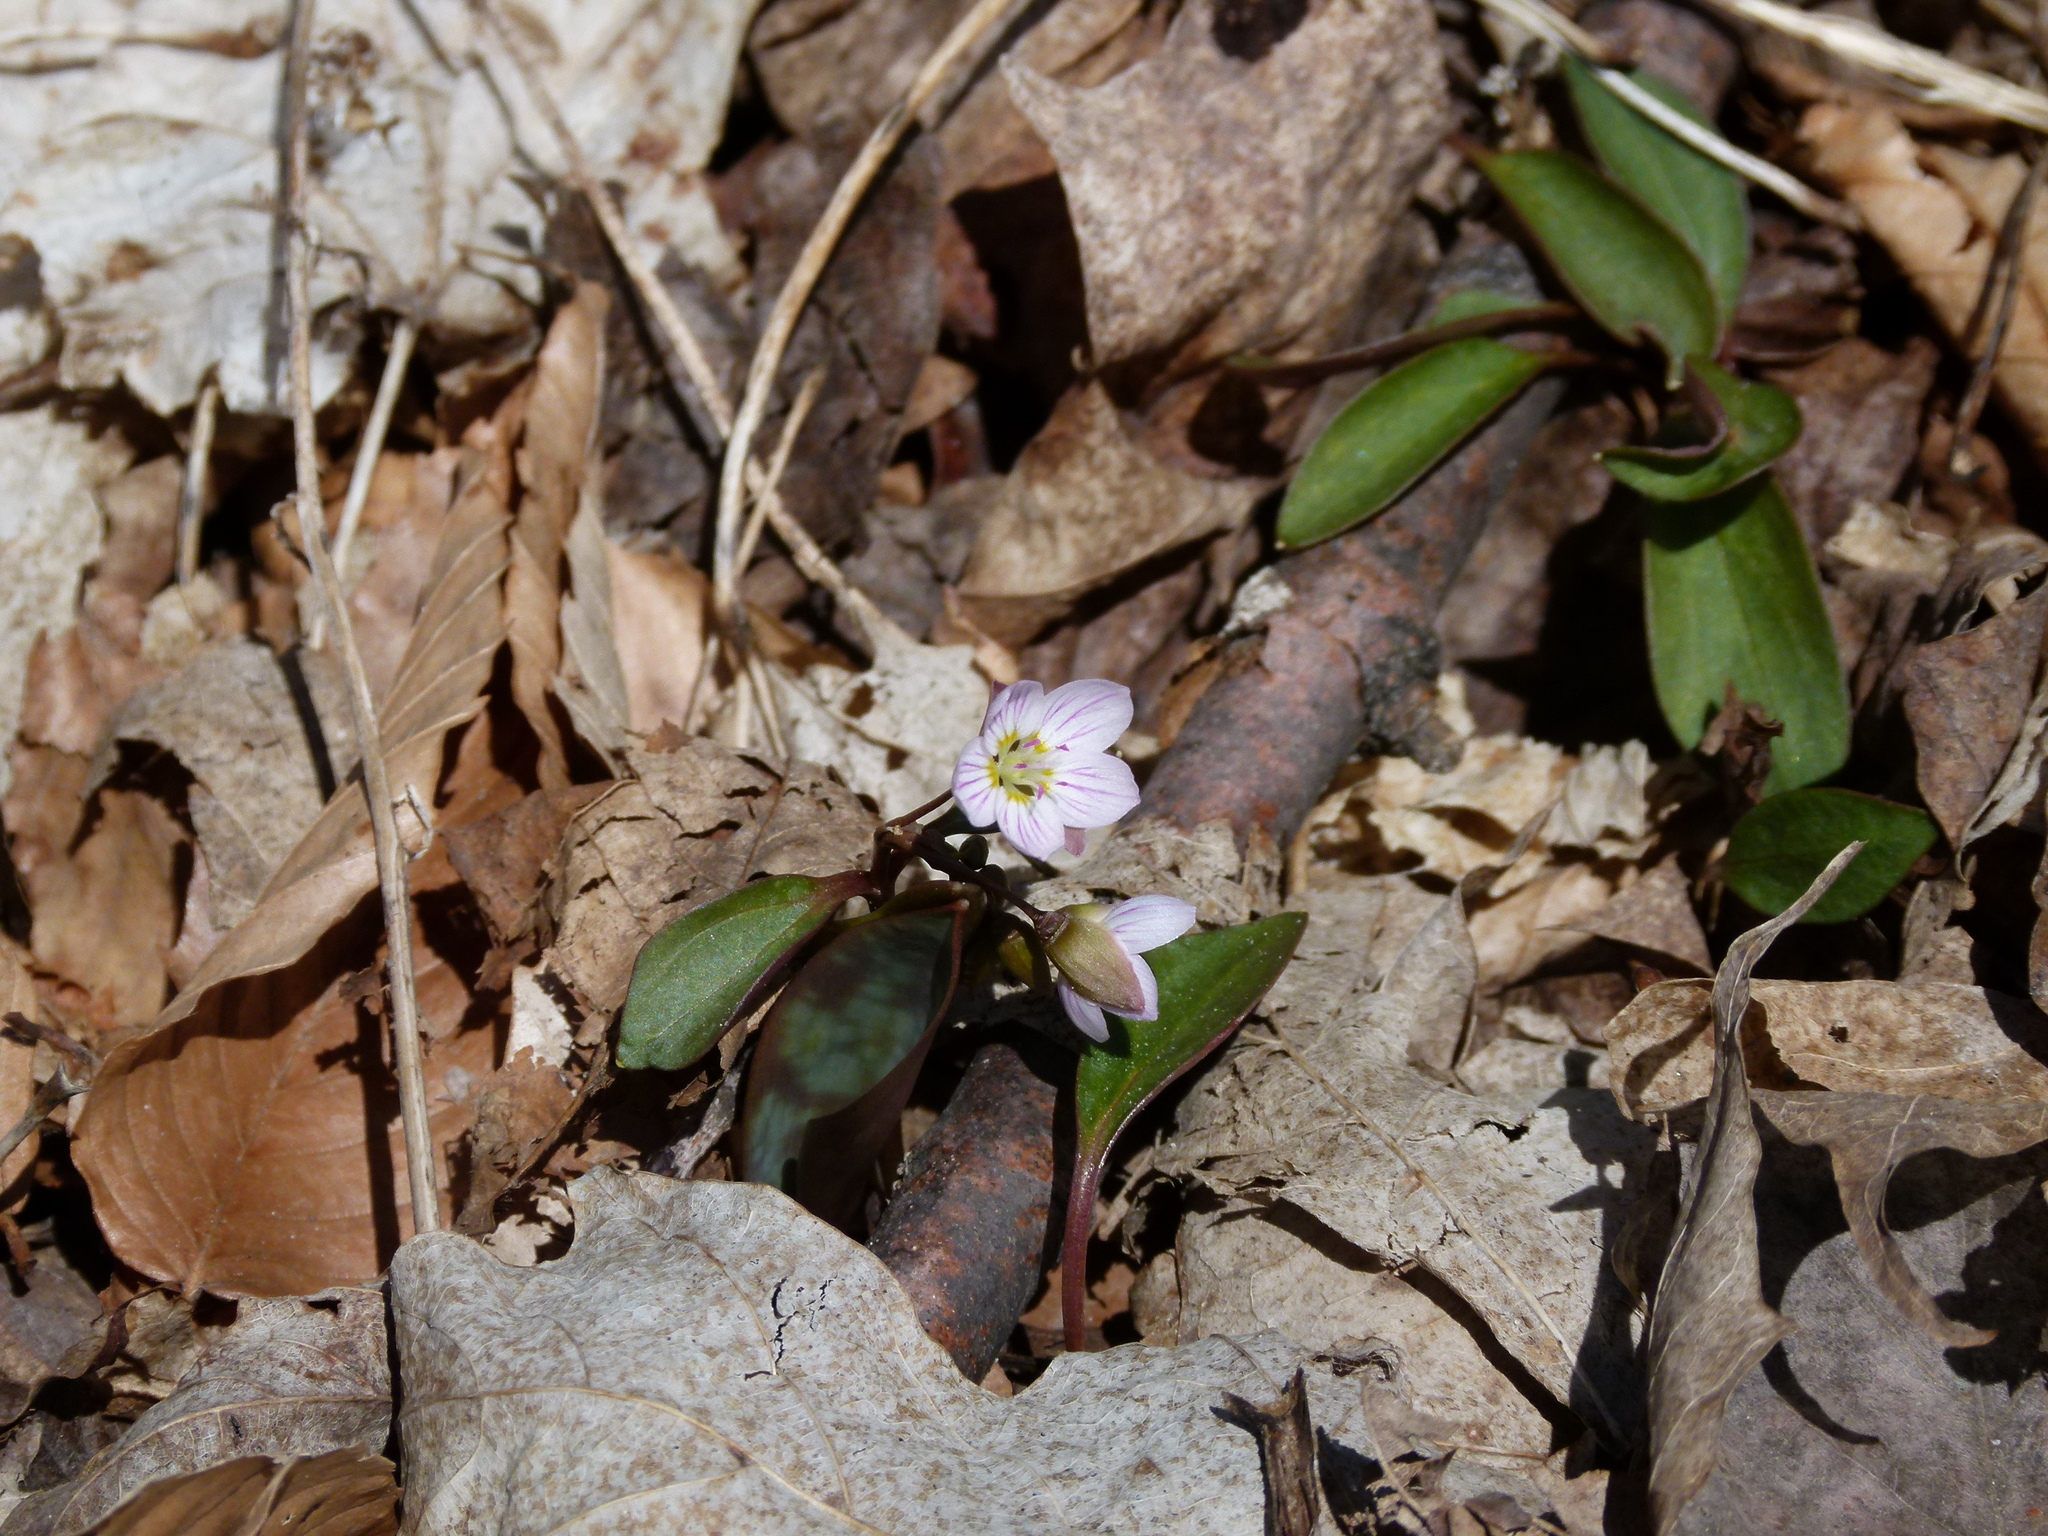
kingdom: Plantae
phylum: Tracheophyta
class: Magnoliopsida
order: Caryophyllales
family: Montiaceae
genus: Claytonia
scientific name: Claytonia caroliniana
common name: Carolina spring beauty
